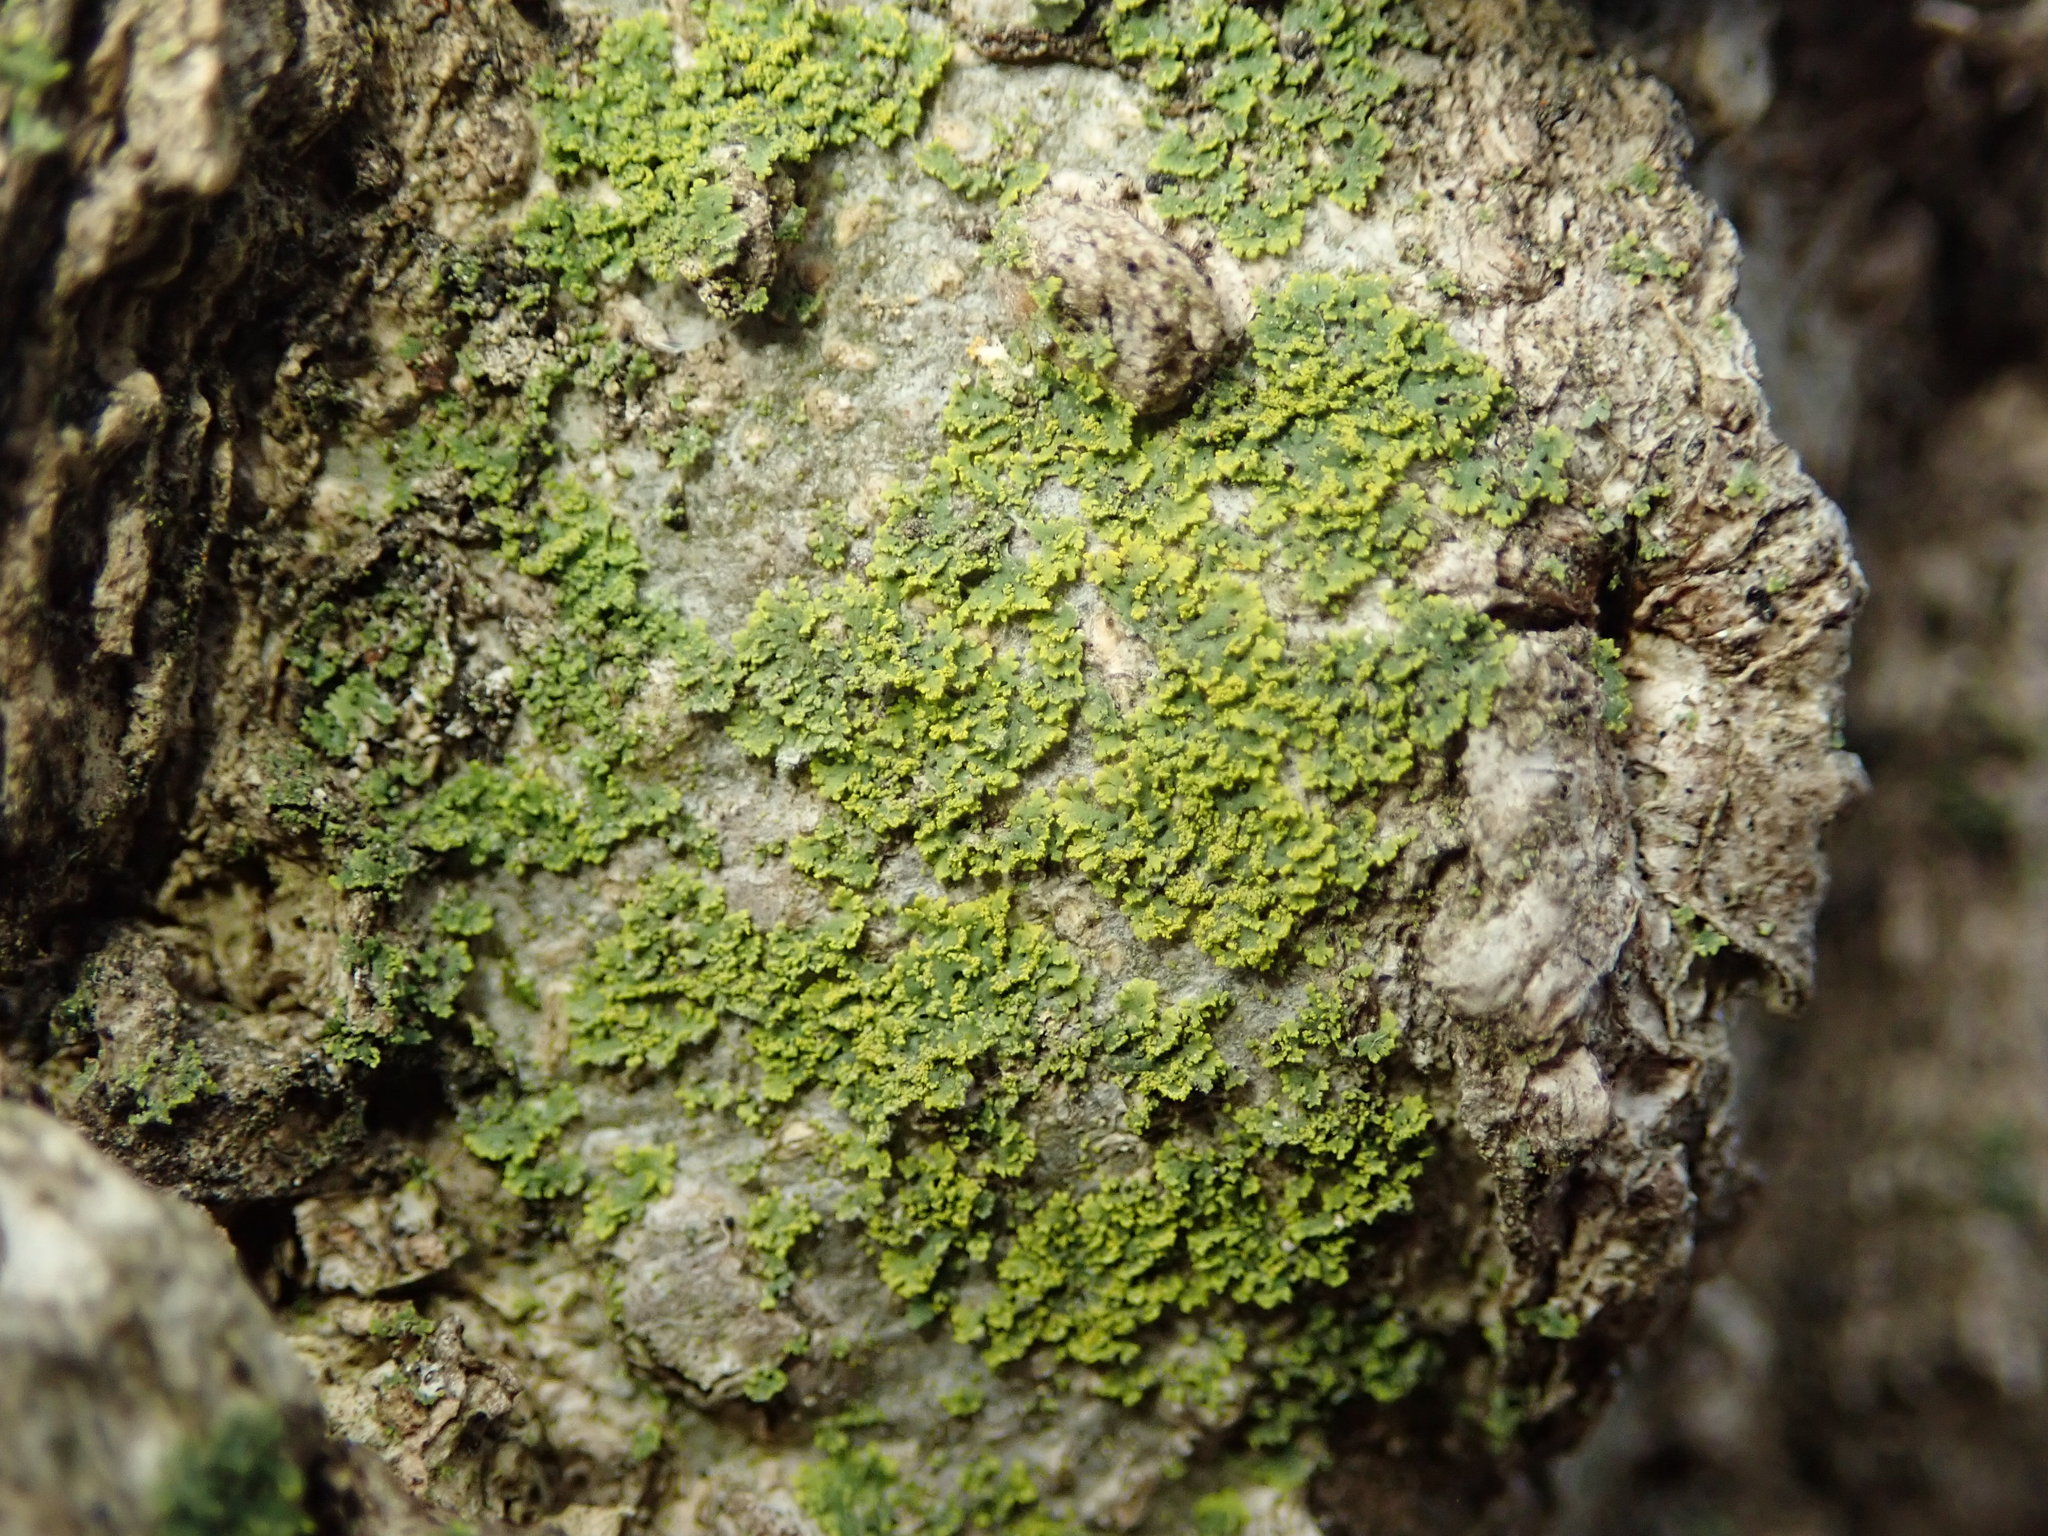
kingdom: Fungi
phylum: Ascomycota
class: Candelariomycetes
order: Candelariales
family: Candelariaceae
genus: Candelaria
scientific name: Candelaria concolor
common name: Candleflame lichen
